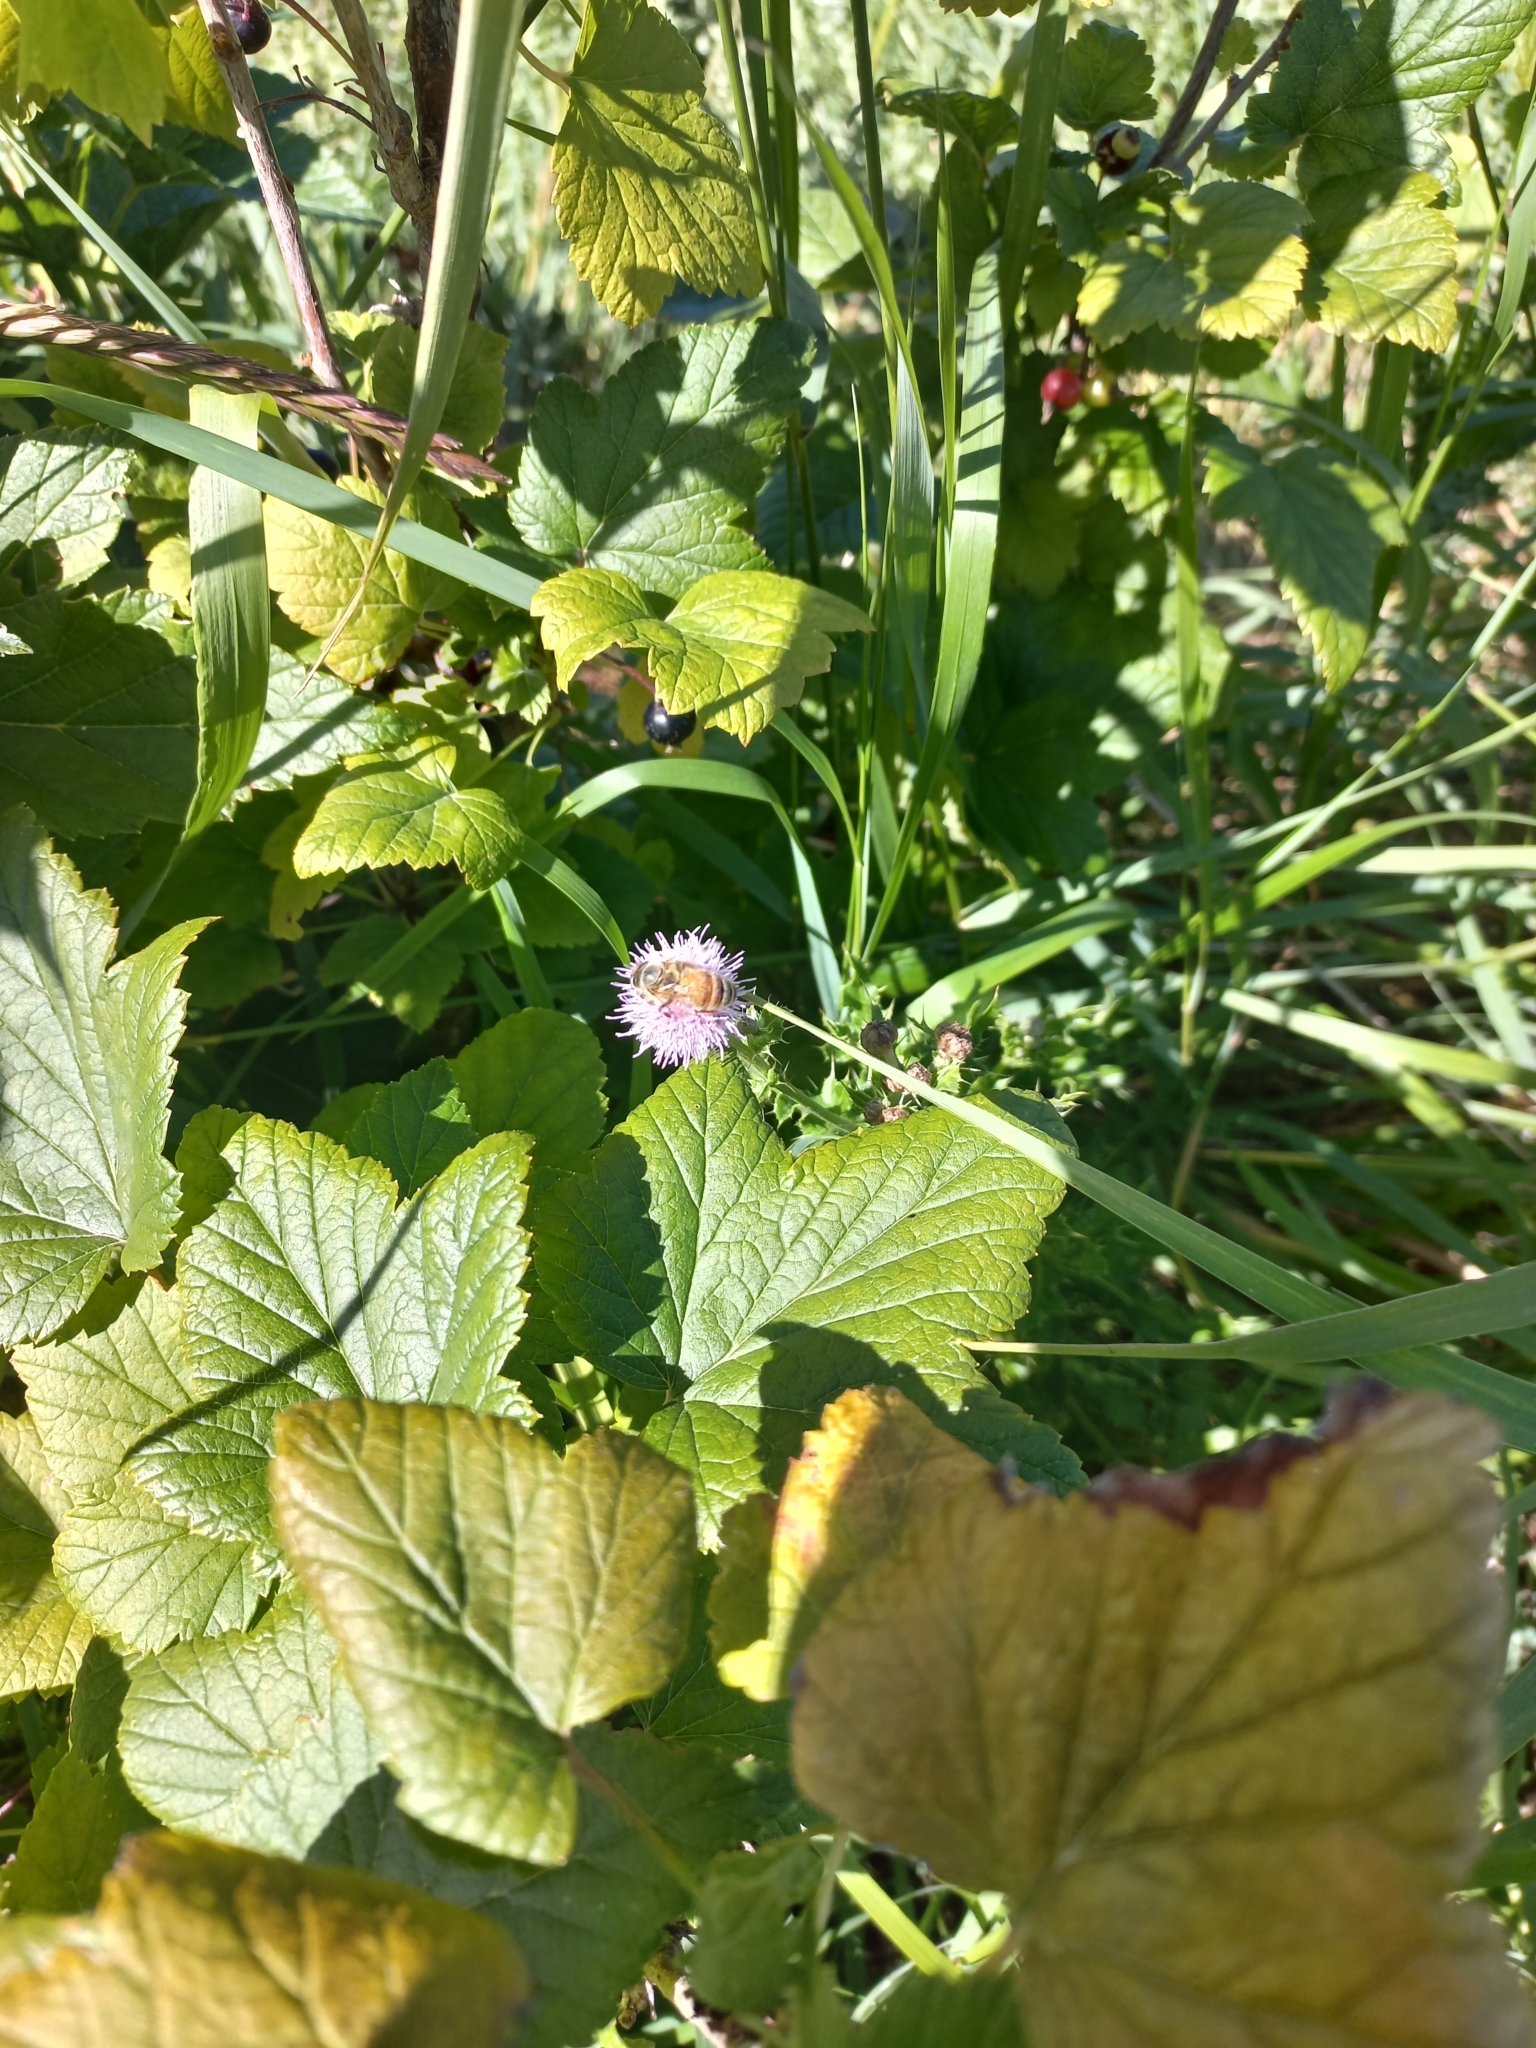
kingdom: Animalia
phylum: Arthropoda
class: Insecta
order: Hymenoptera
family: Apidae
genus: Apis
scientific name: Apis mellifera
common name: Honey bee
